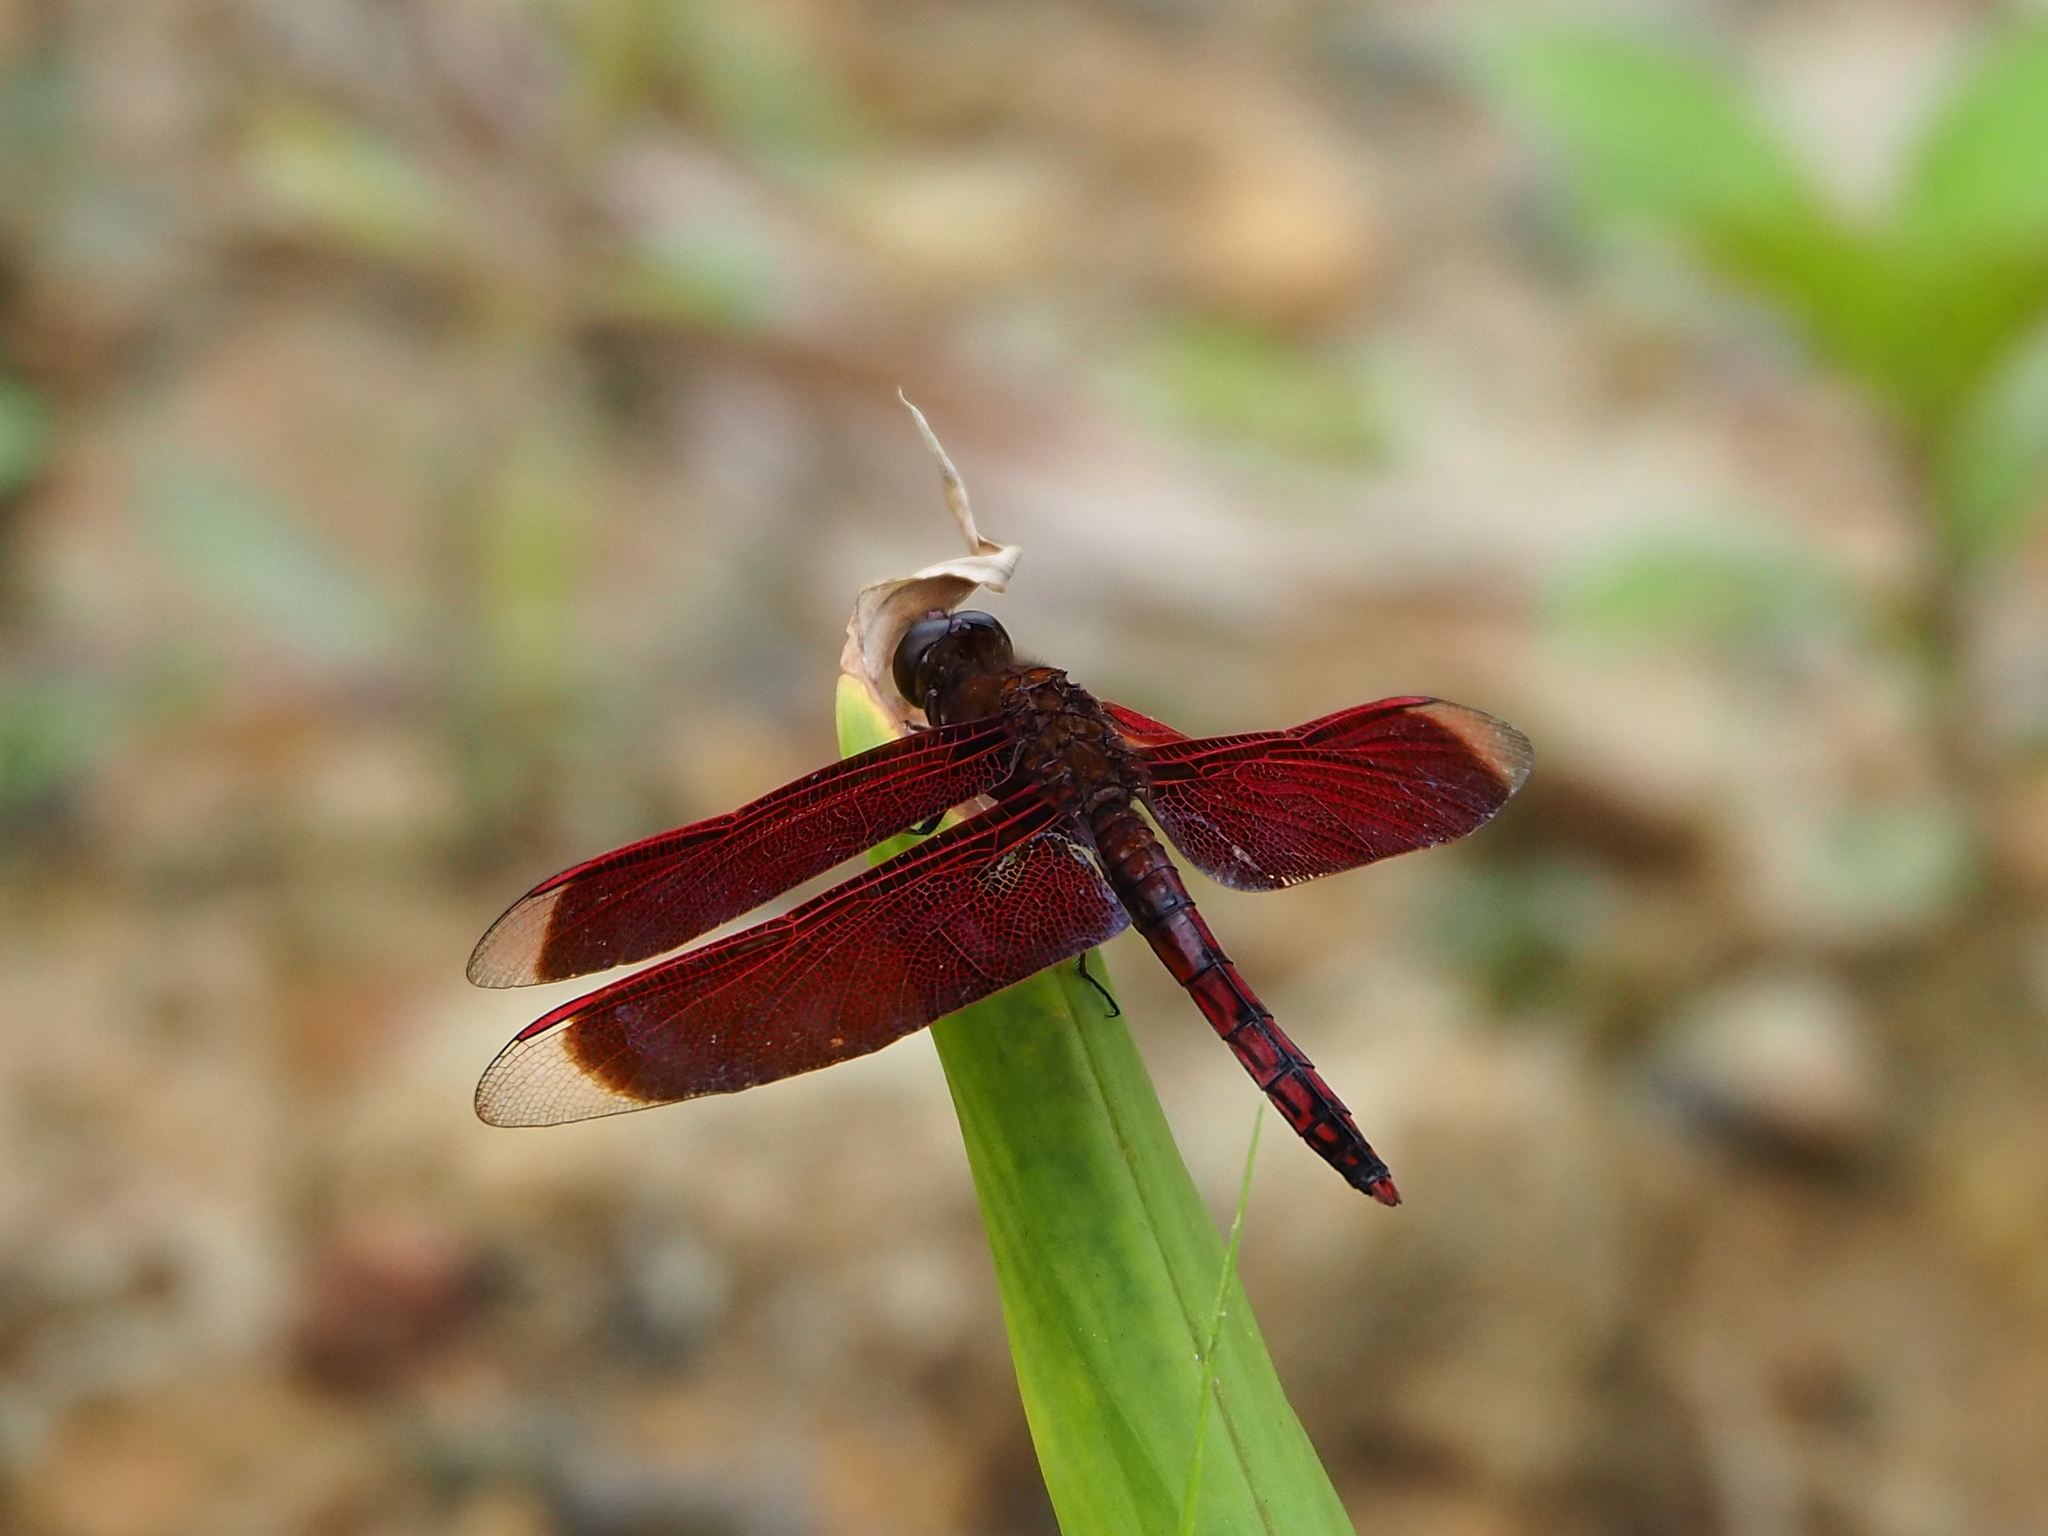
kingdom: Animalia
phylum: Arthropoda
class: Insecta
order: Odonata
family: Libellulidae
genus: Neurothemis
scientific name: Neurothemis taiwanensis
